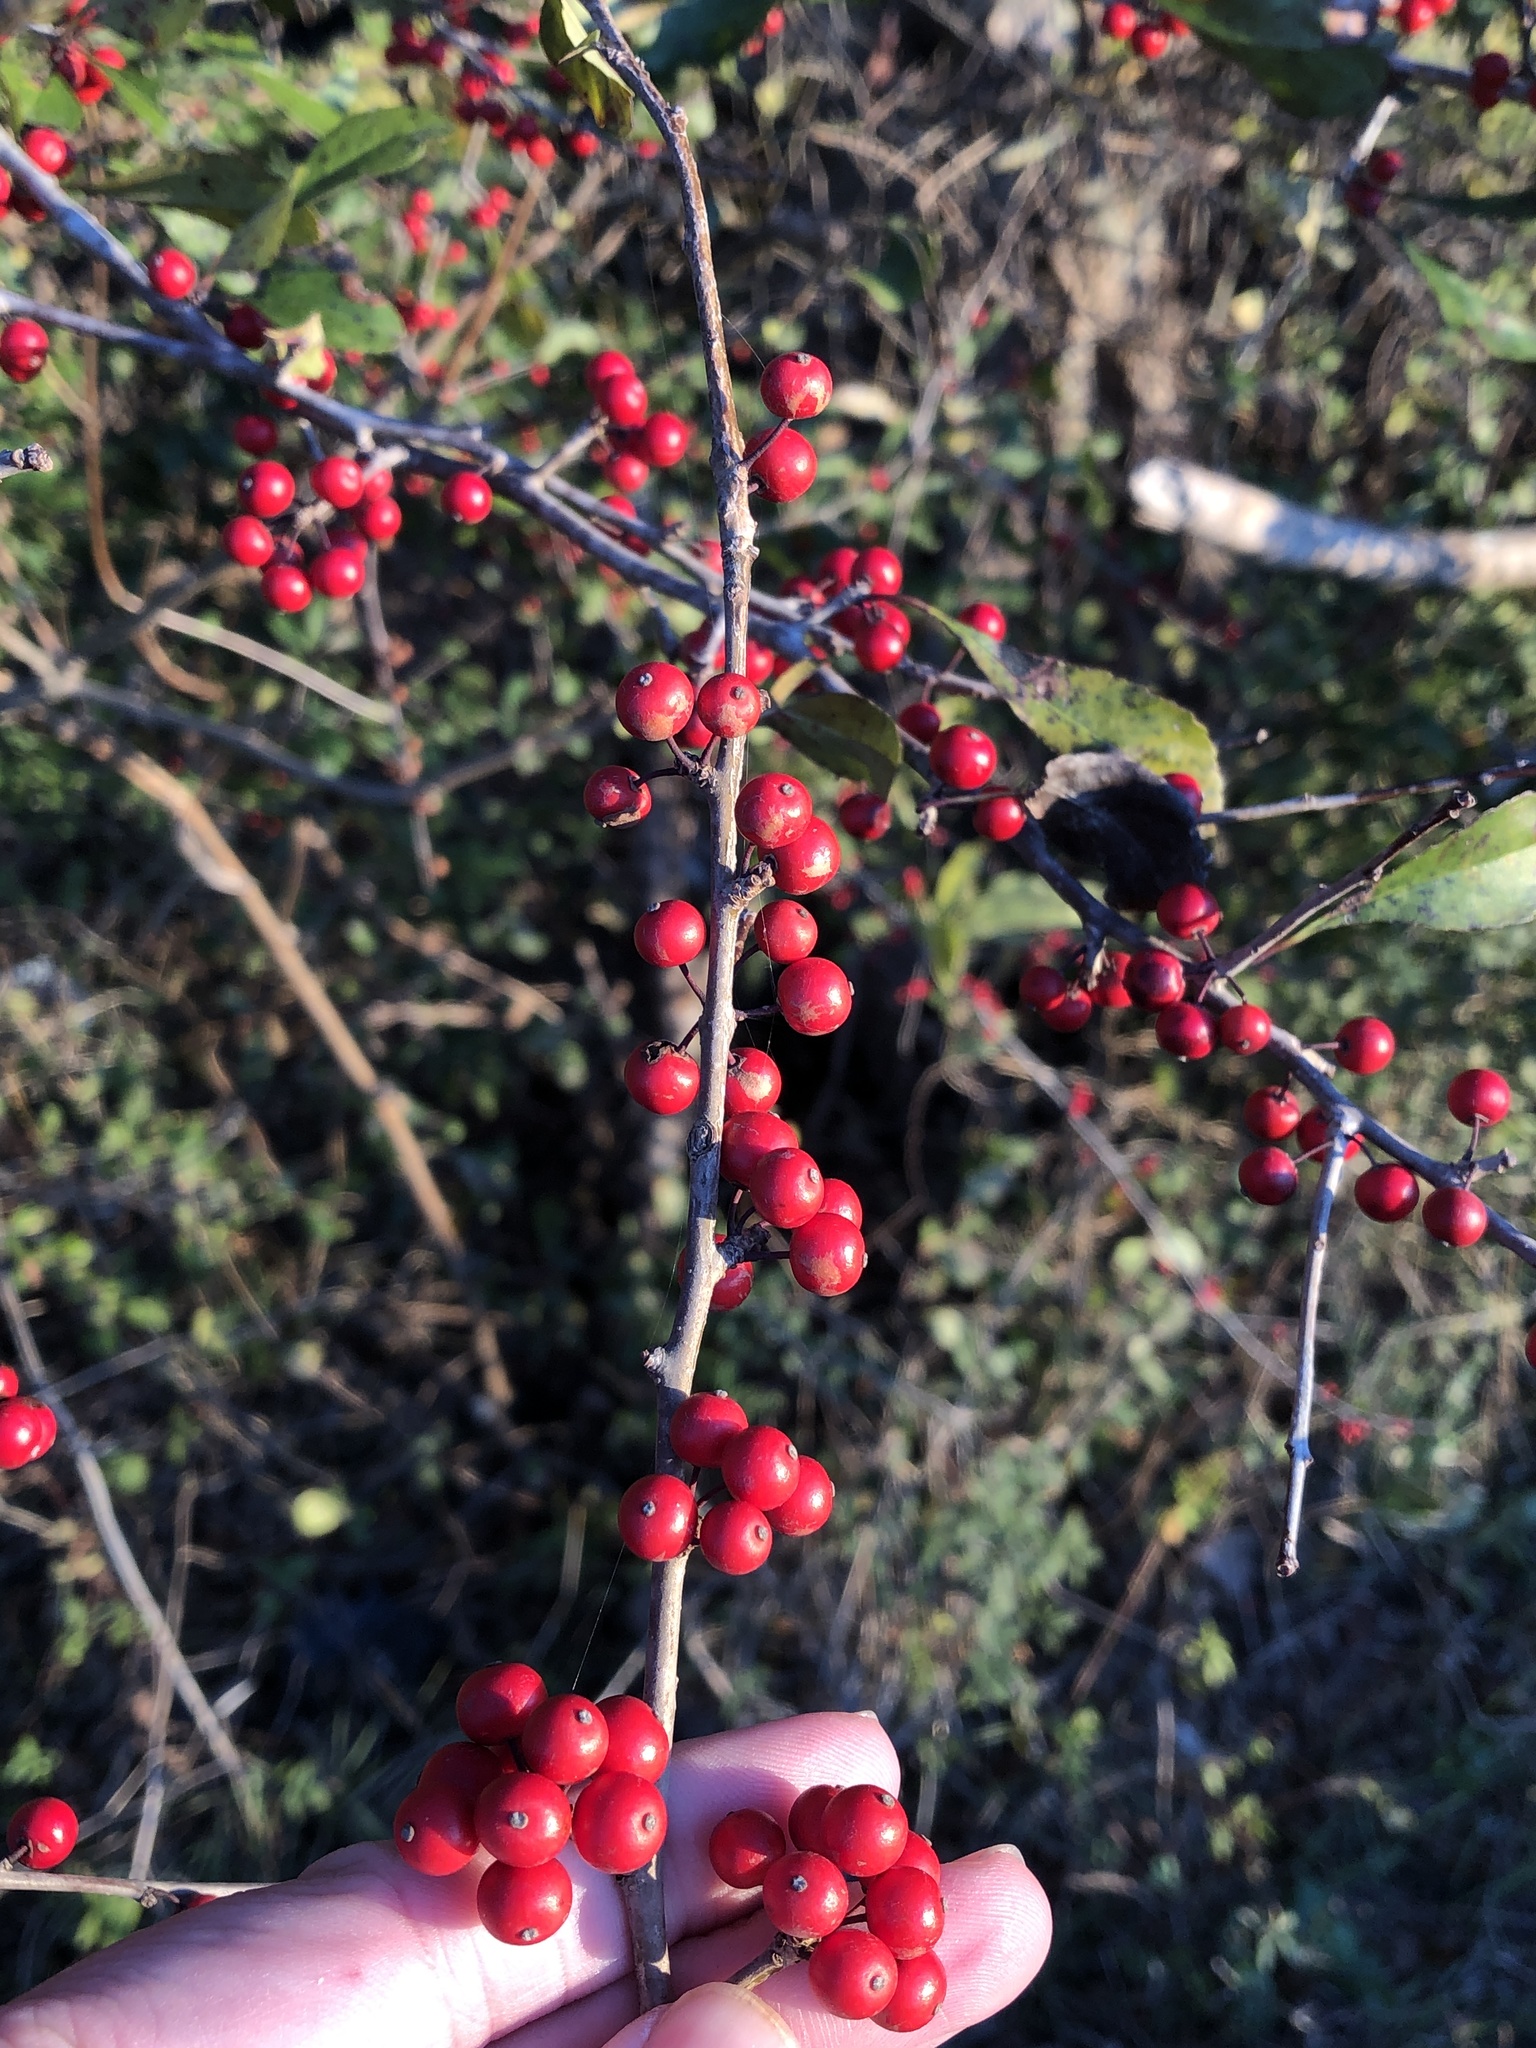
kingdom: Plantae
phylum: Tracheophyta
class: Magnoliopsida
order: Aquifoliales
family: Aquifoliaceae
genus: Ilex
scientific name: Ilex decidua
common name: Possum-haw
